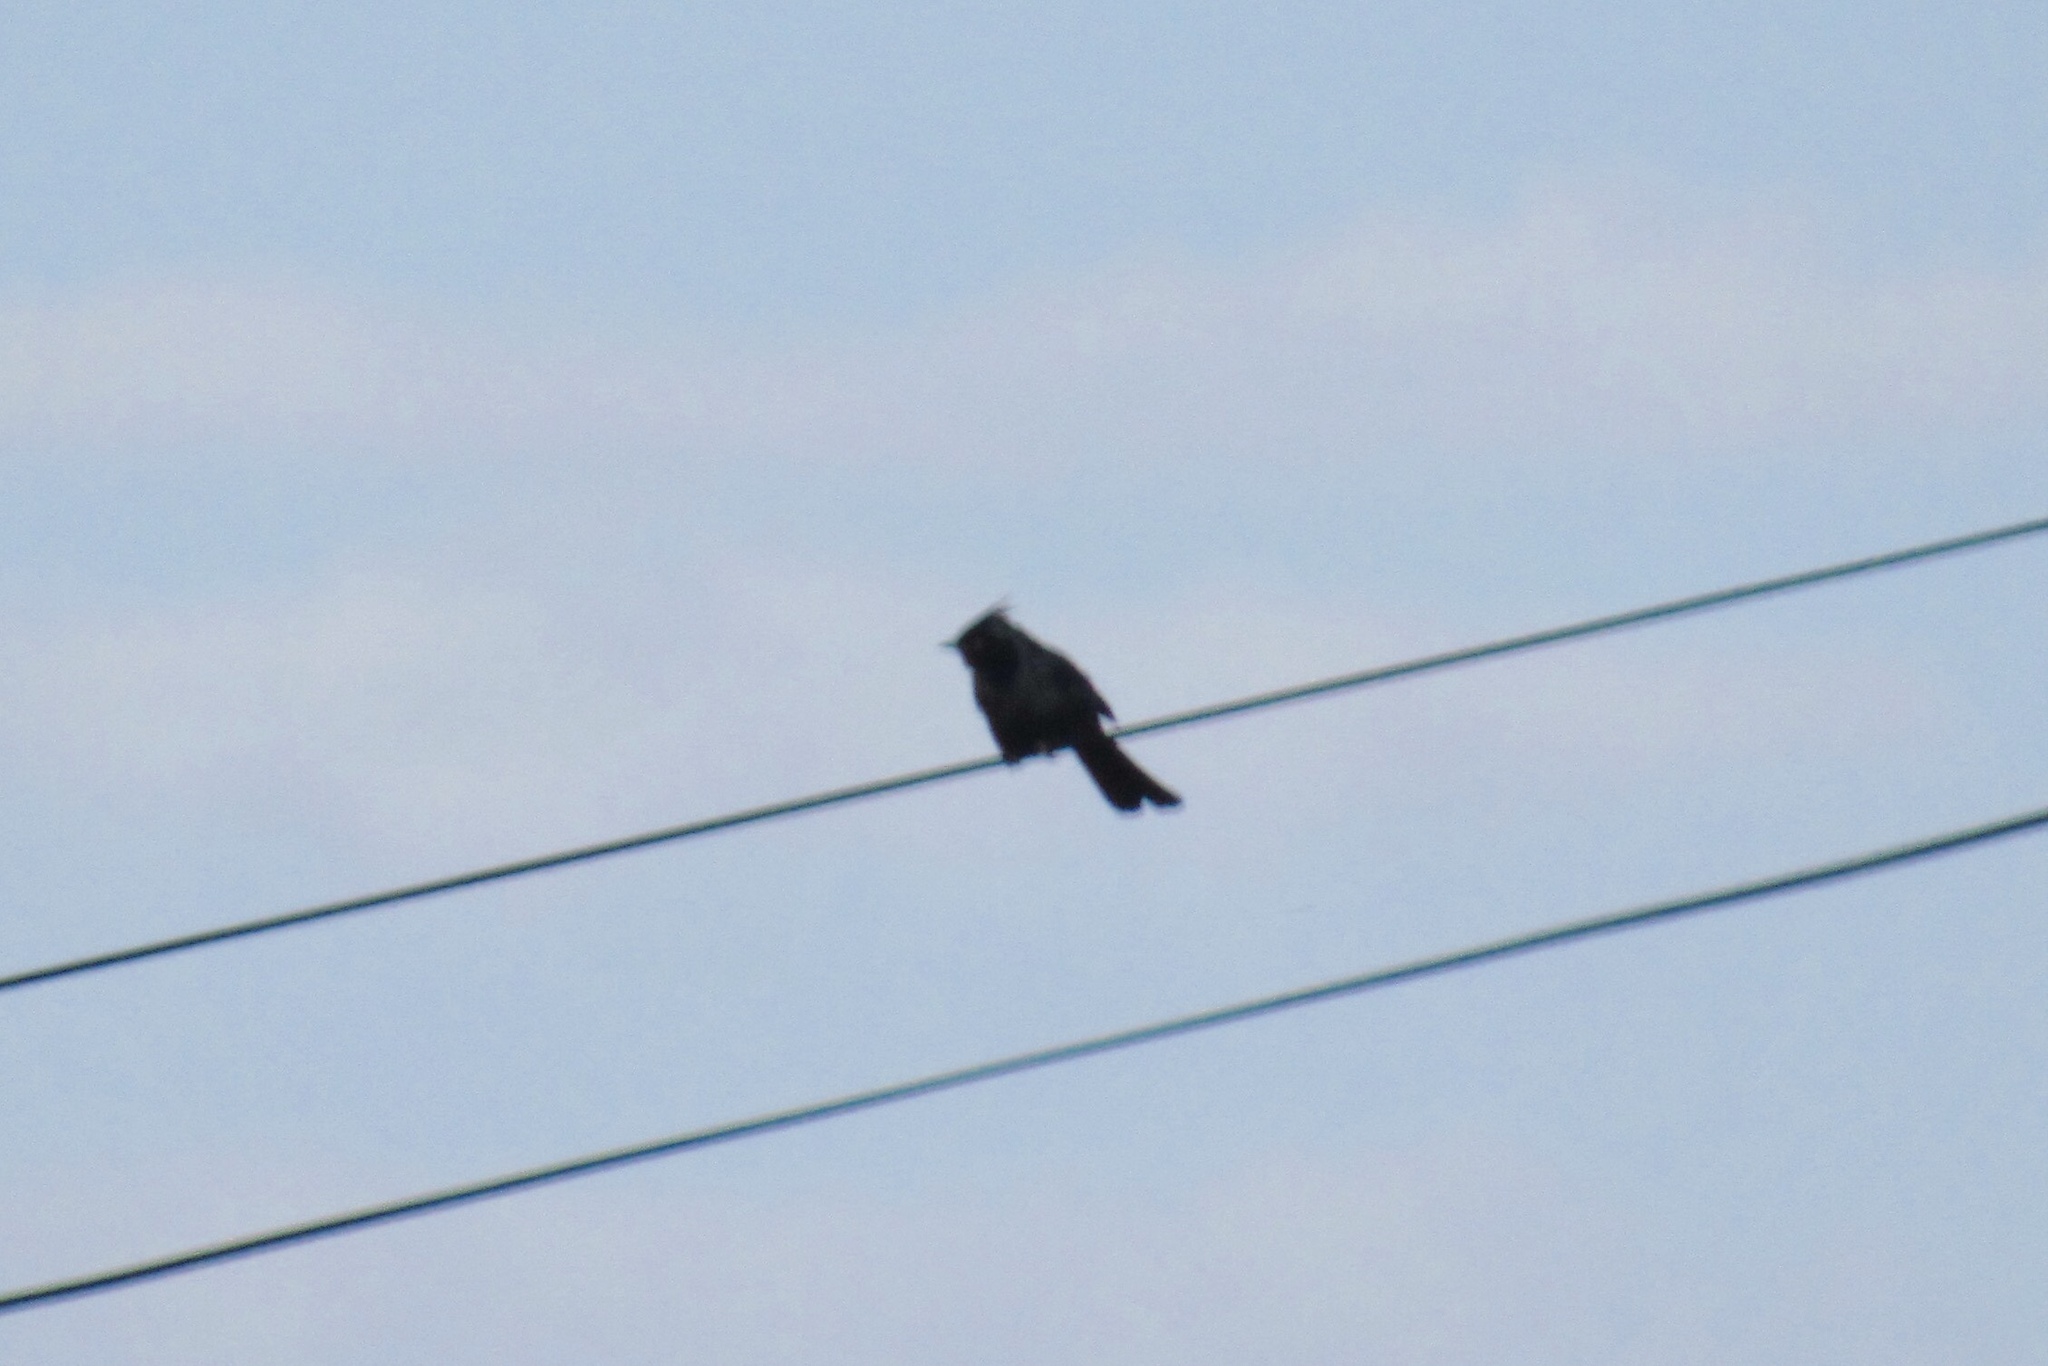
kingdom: Animalia
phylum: Chordata
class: Aves
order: Passeriformes
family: Ptilogonatidae
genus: Phainopepla
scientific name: Phainopepla nitens
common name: Phainopepla
